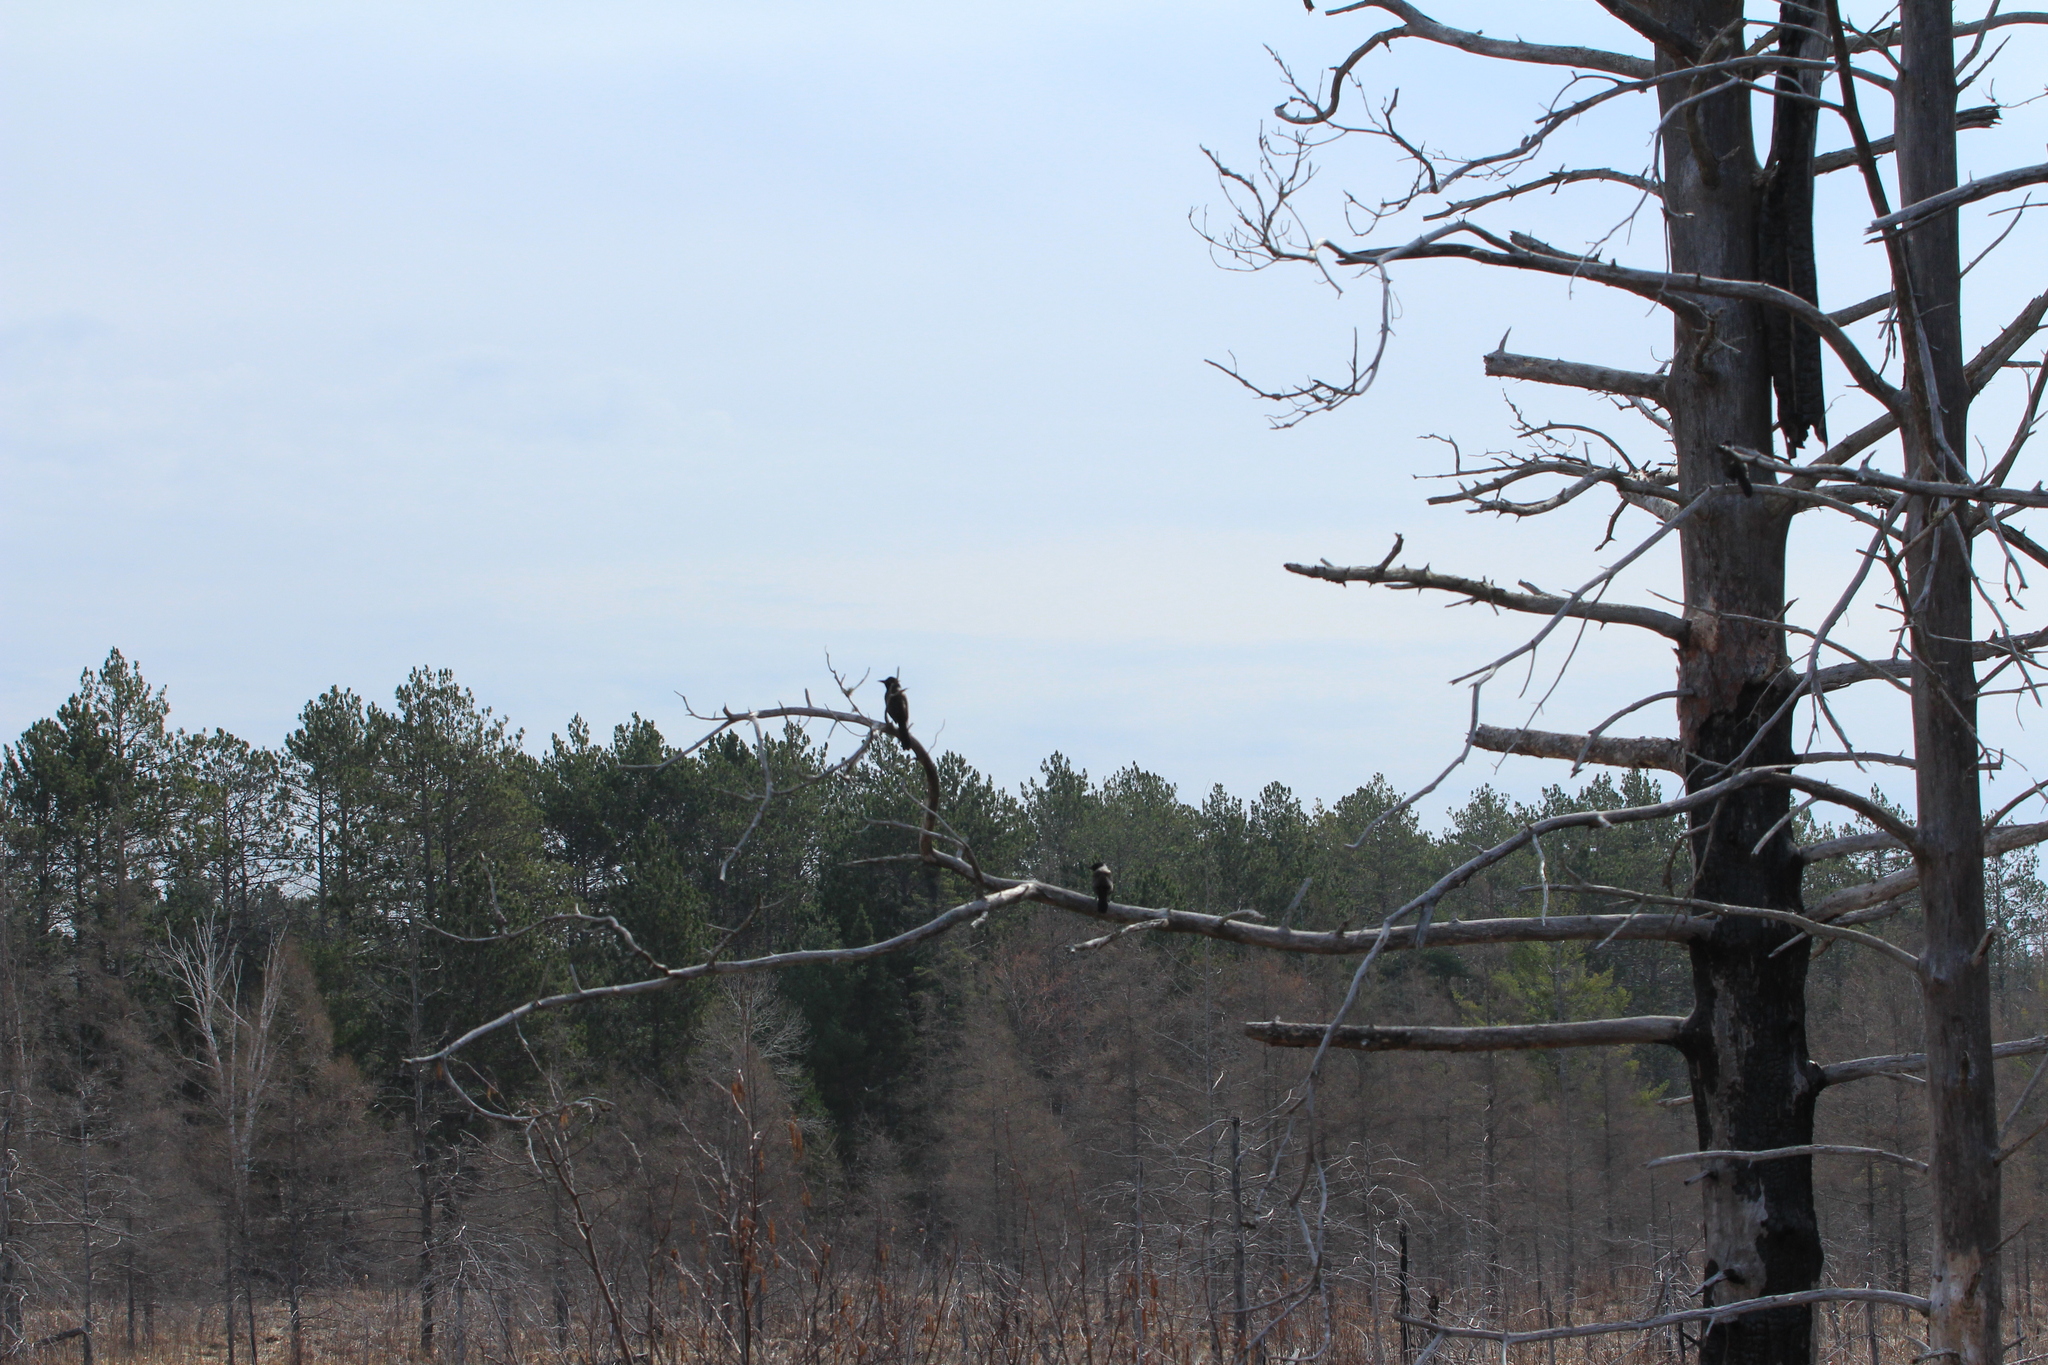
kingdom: Animalia
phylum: Chordata
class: Aves
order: Passeriformes
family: Icteridae
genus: Quiscalus
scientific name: Quiscalus quiscula
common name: Common grackle
